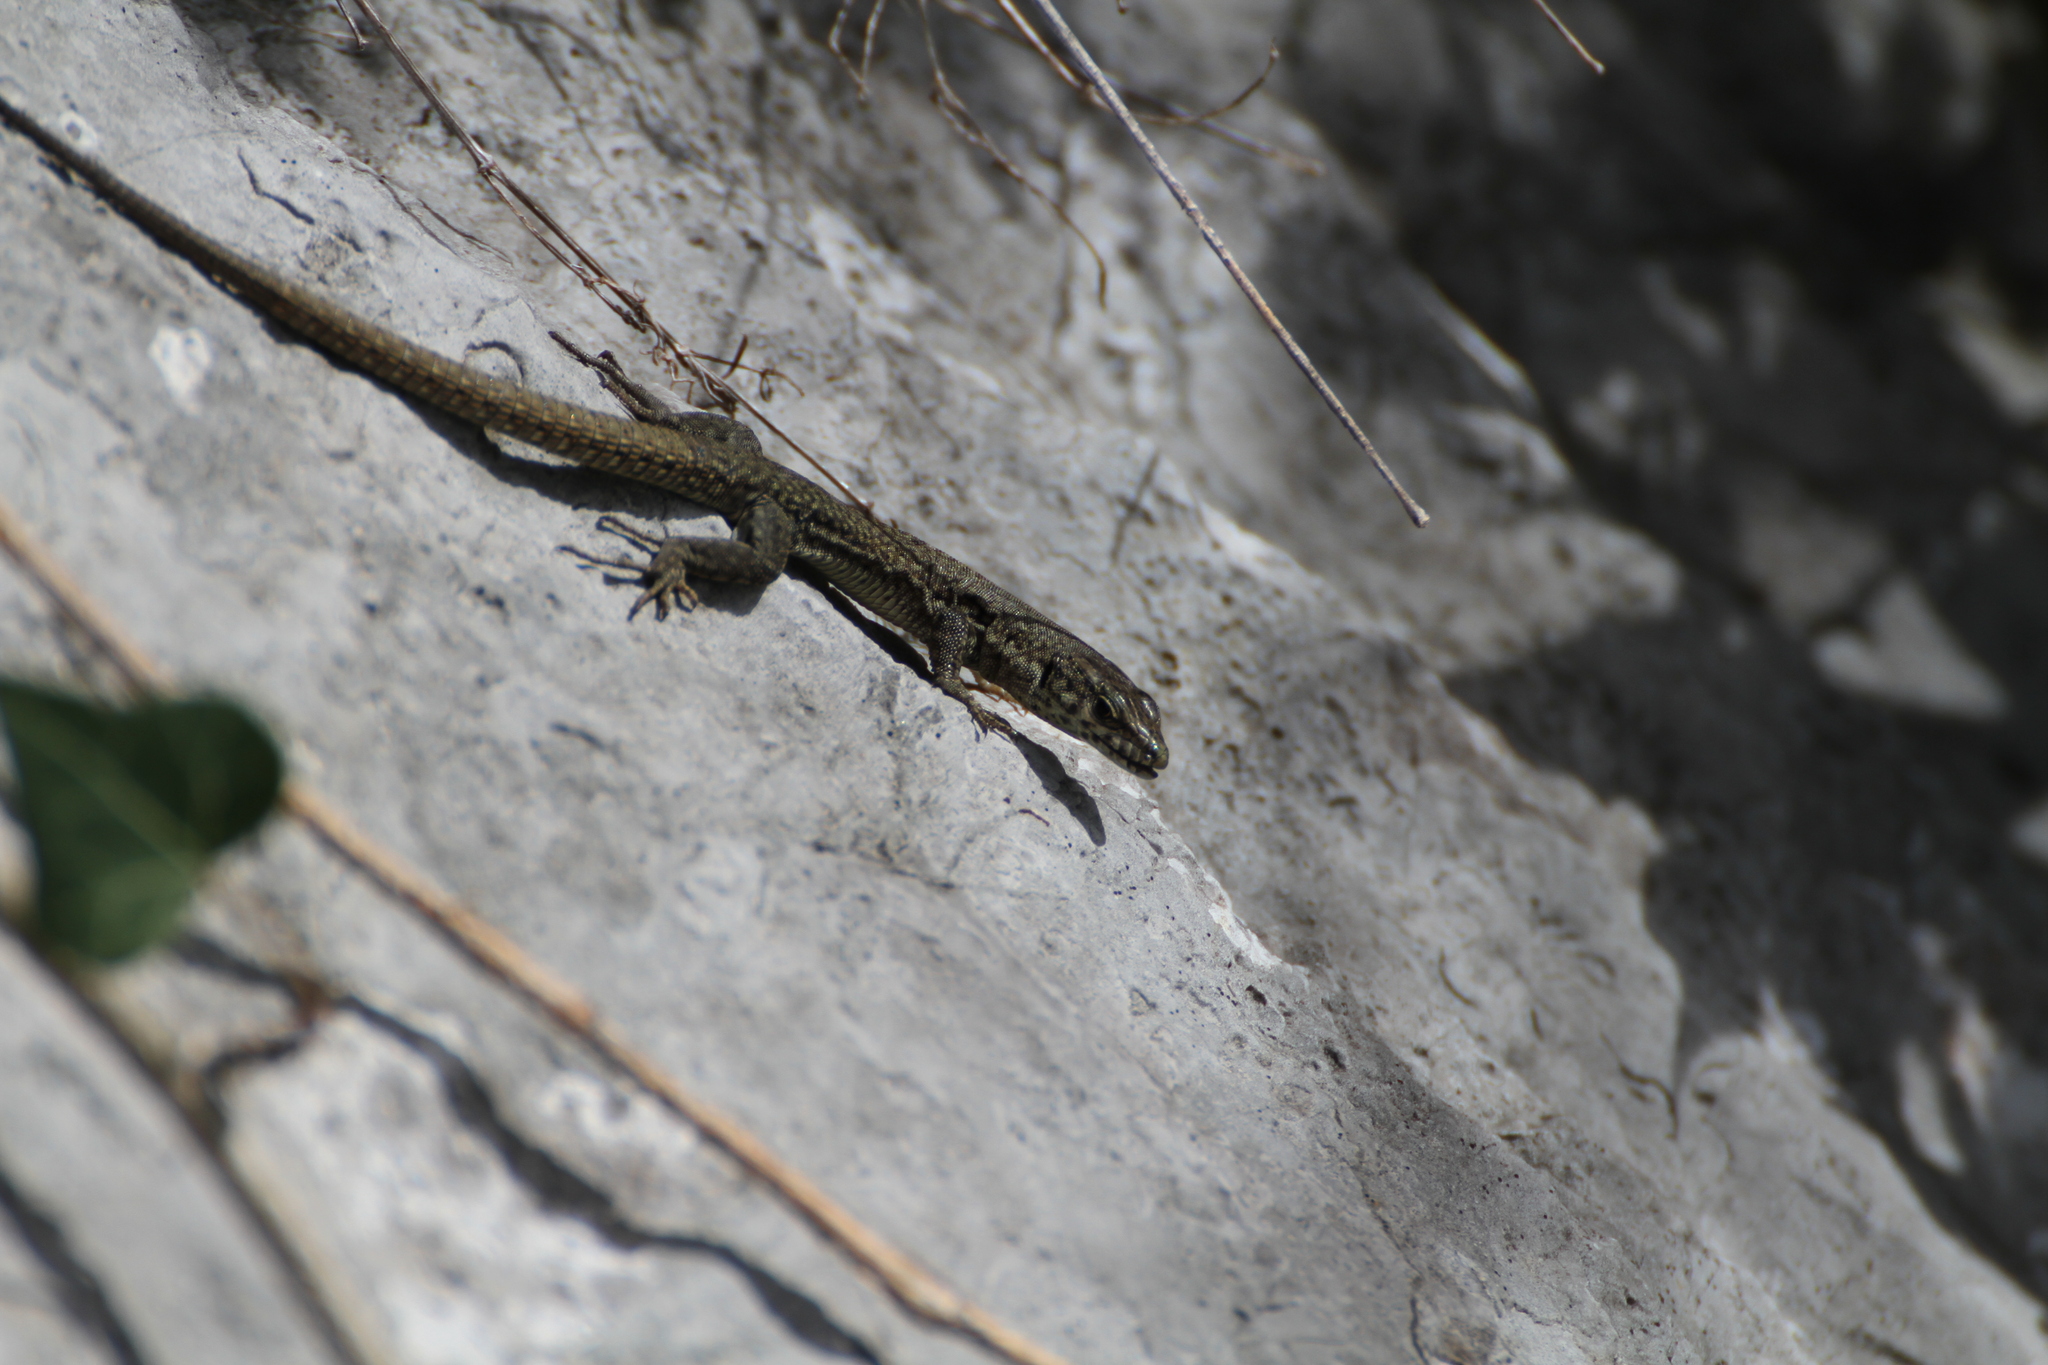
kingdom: Animalia
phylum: Chordata
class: Squamata
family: Lacertidae
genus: Podarcis
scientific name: Podarcis liolepis
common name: Catalonian wall lizard
